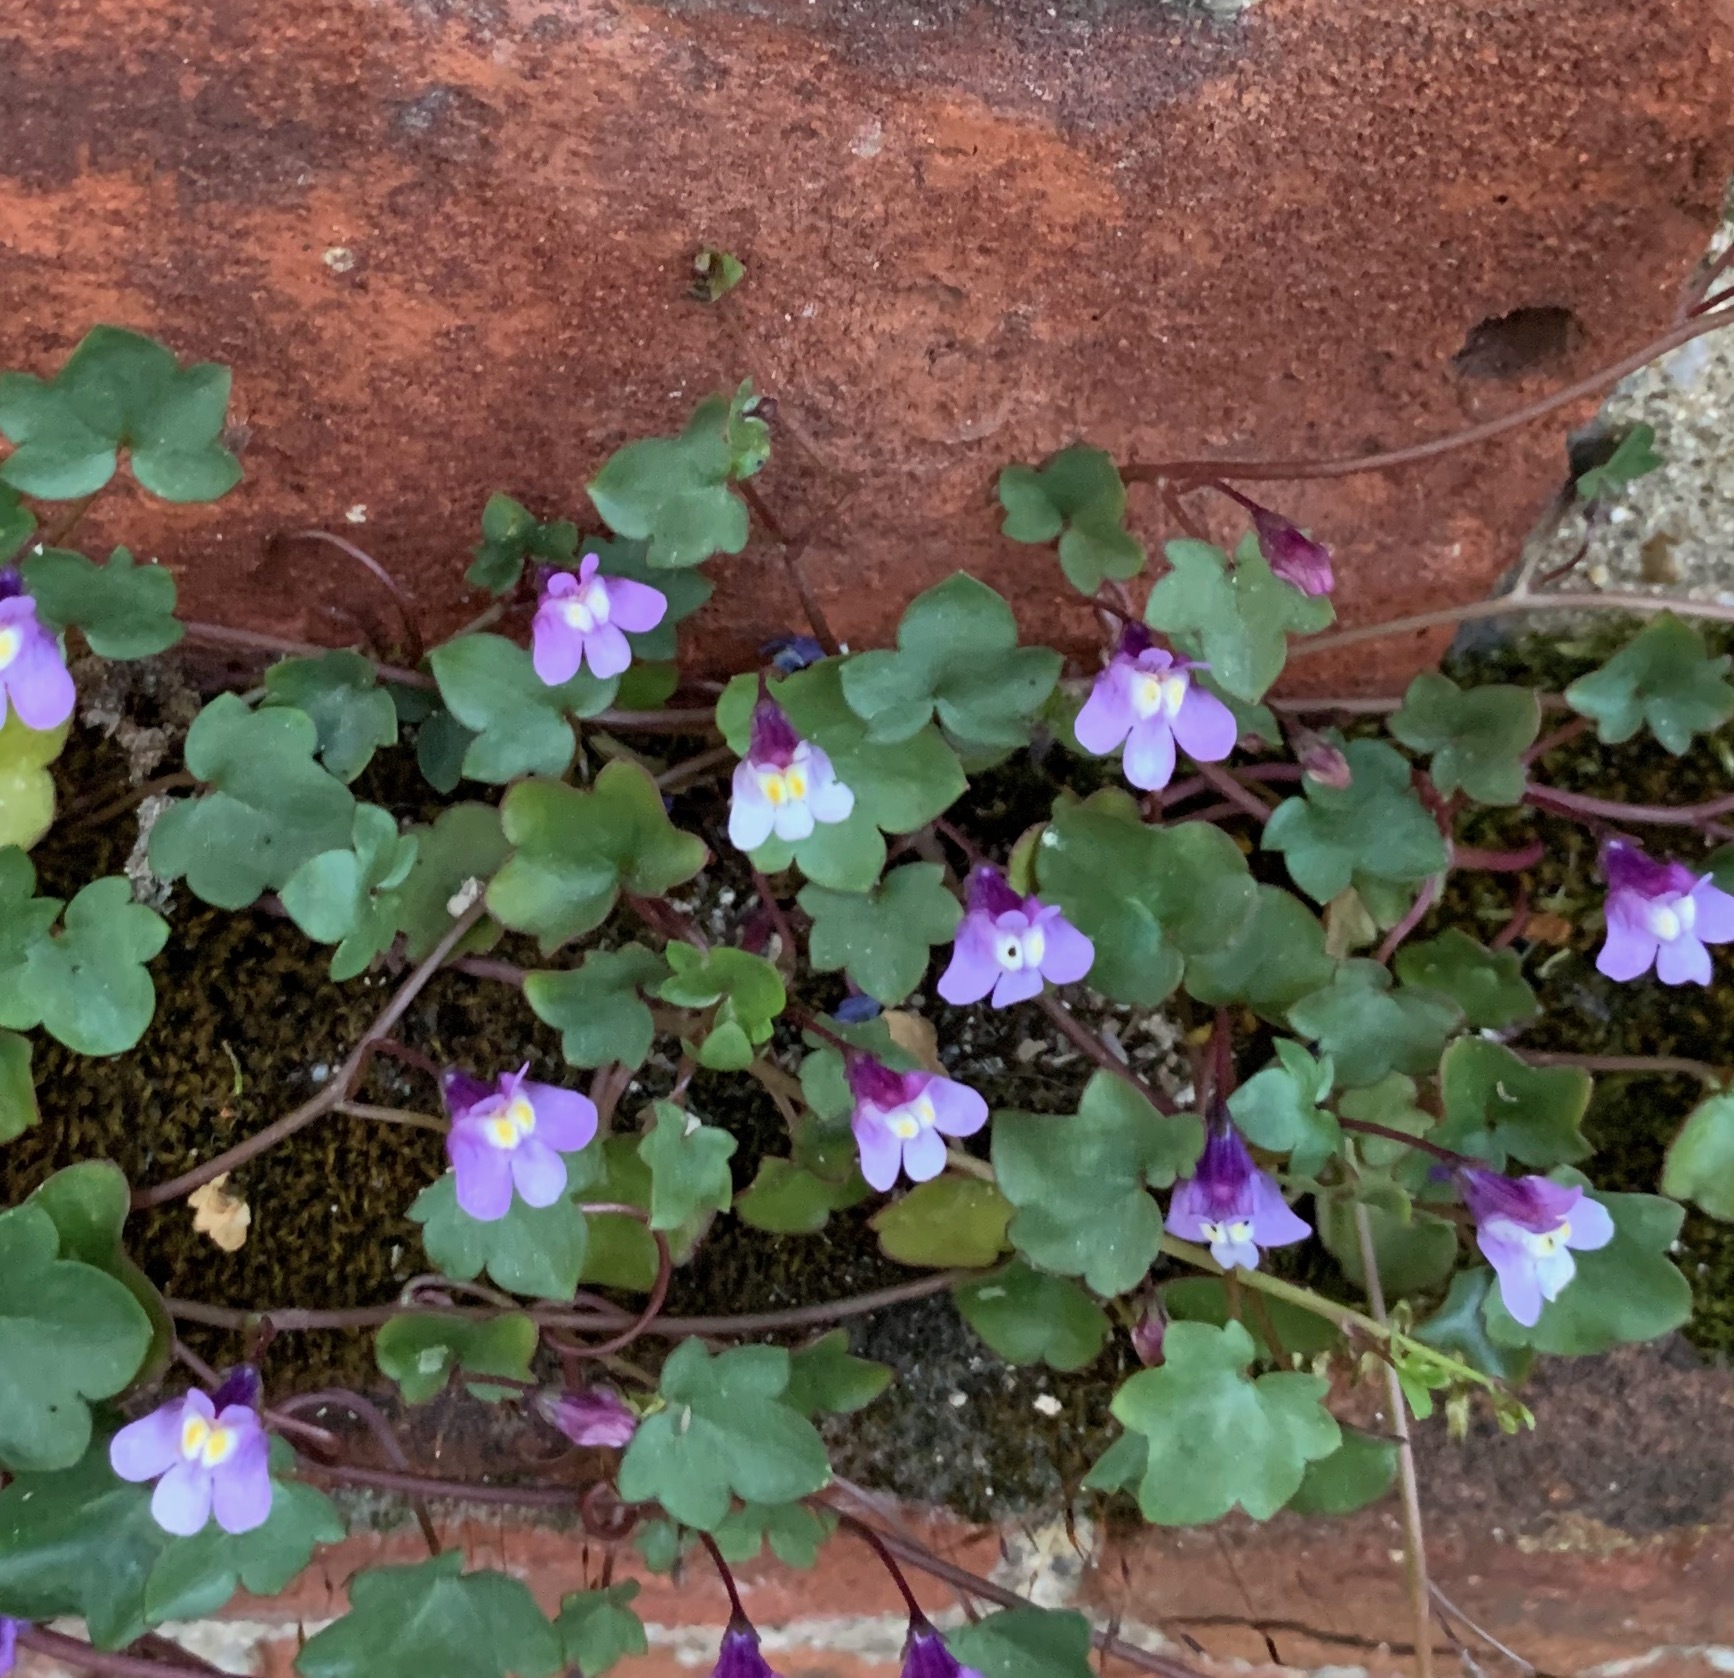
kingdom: Plantae
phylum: Tracheophyta
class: Magnoliopsida
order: Lamiales
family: Plantaginaceae
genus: Cymbalaria
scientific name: Cymbalaria muralis
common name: Ivy-leaved toadflax
